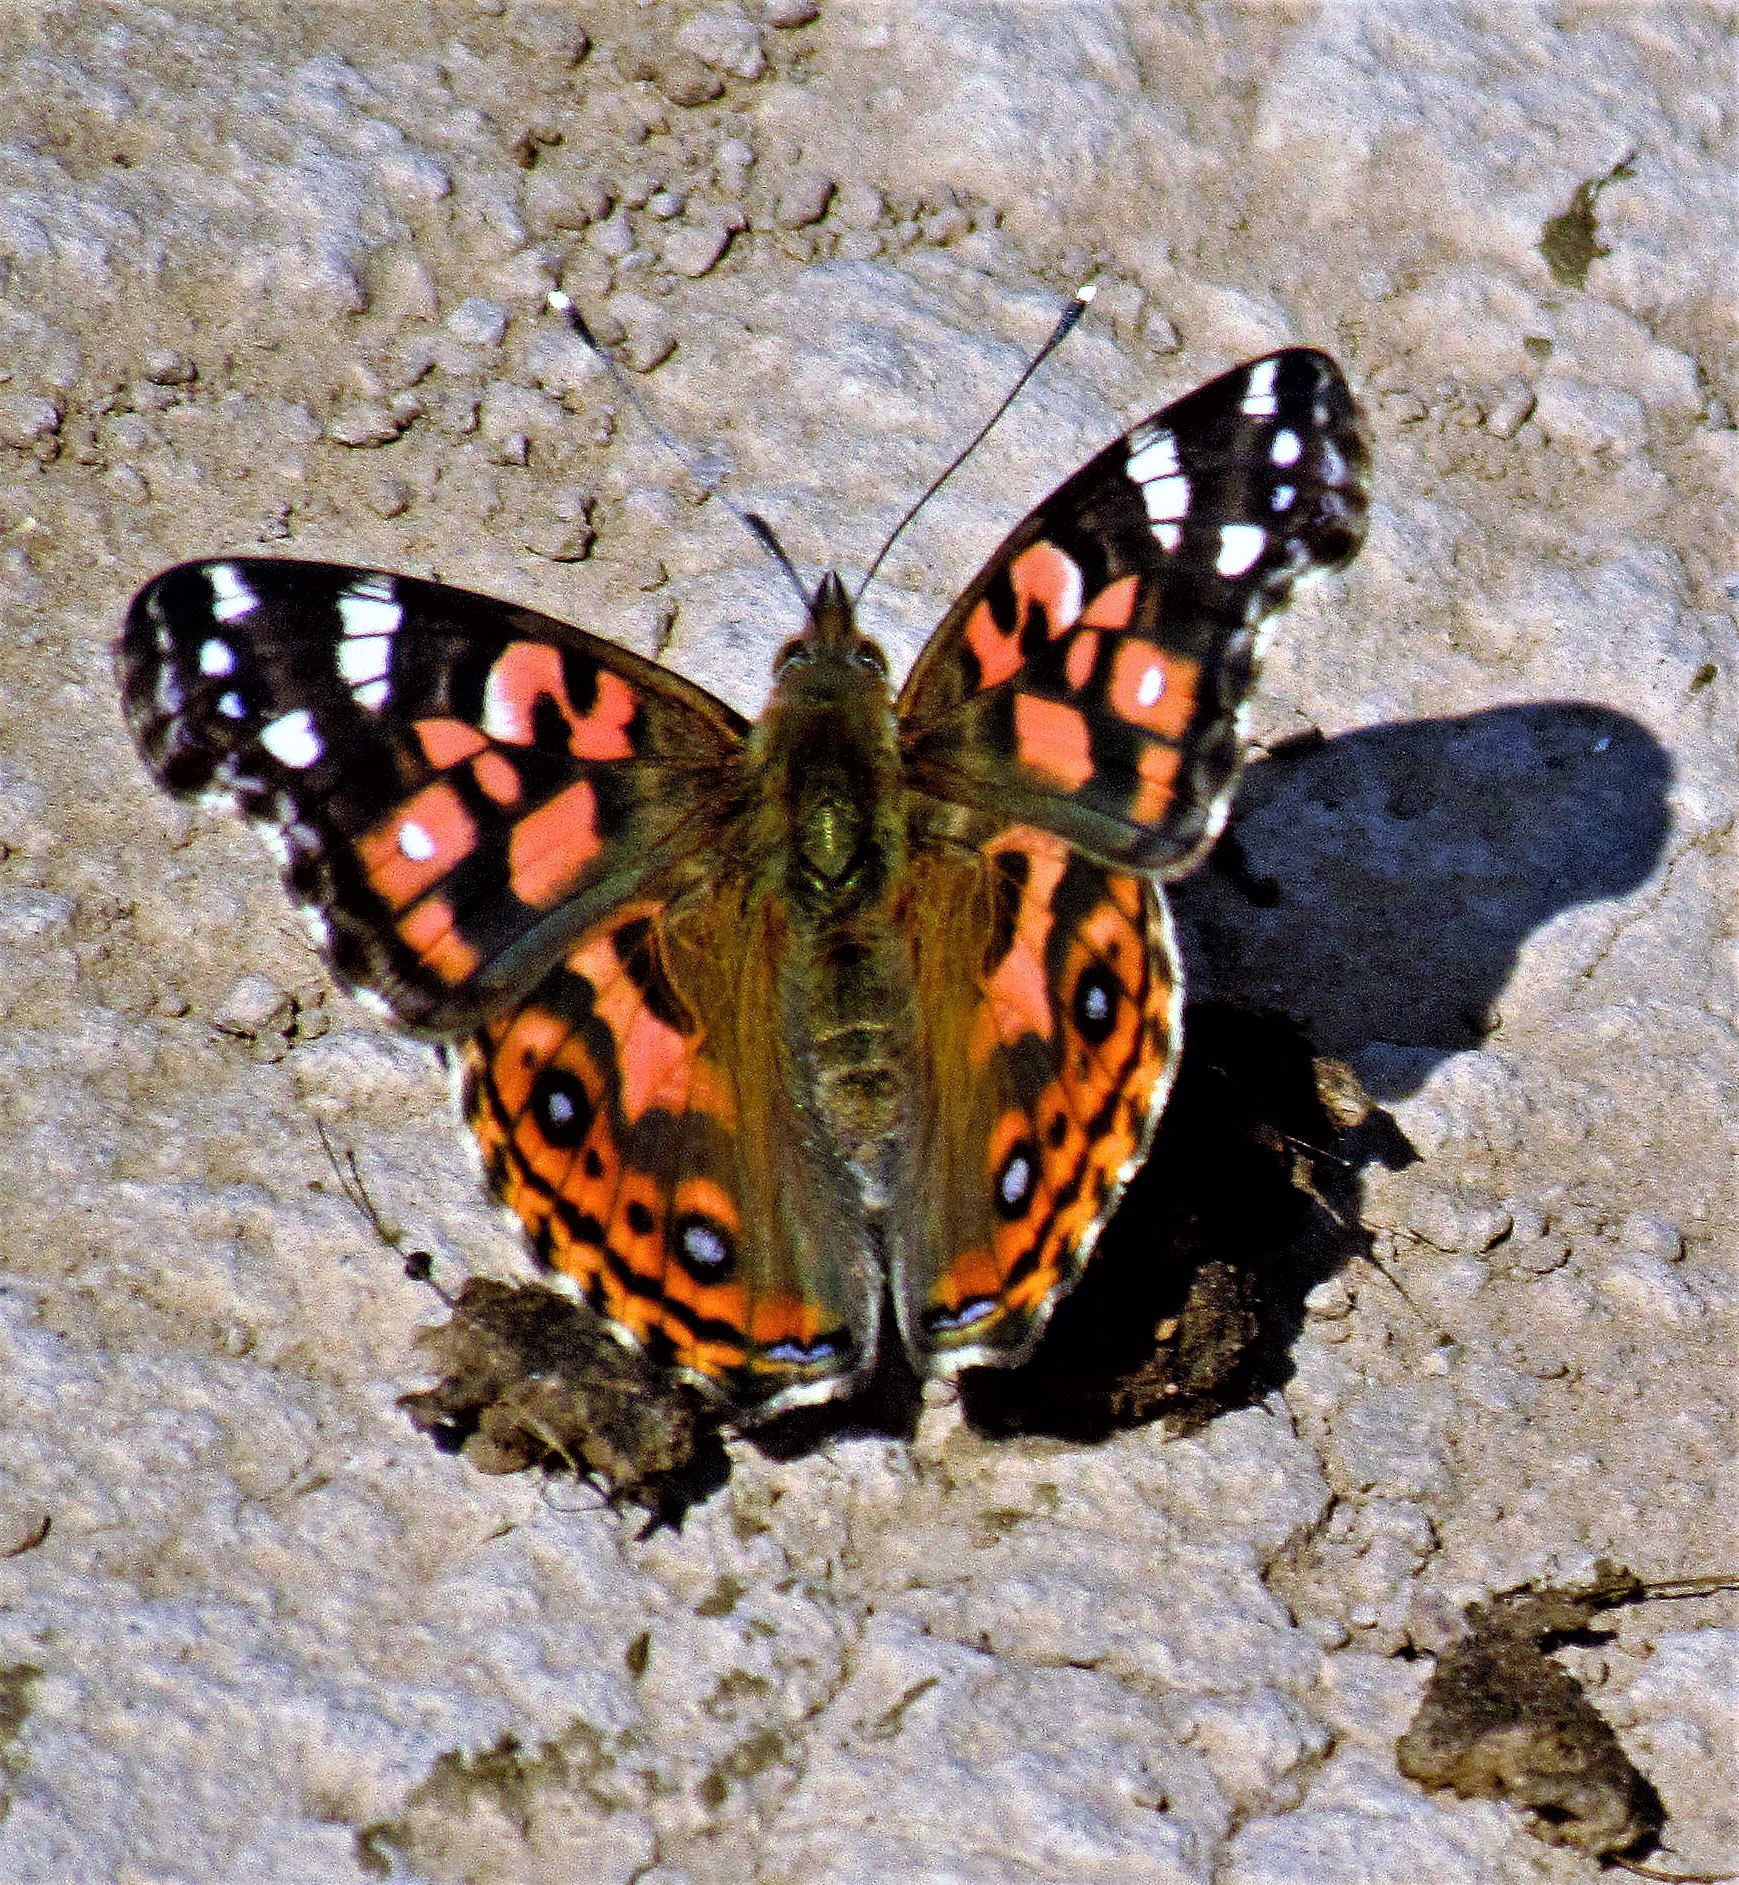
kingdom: Animalia
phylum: Arthropoda
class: Insecta
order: Lepidoptera
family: Nymphalidae
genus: Vanessa
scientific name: Vanessa braziliensis
